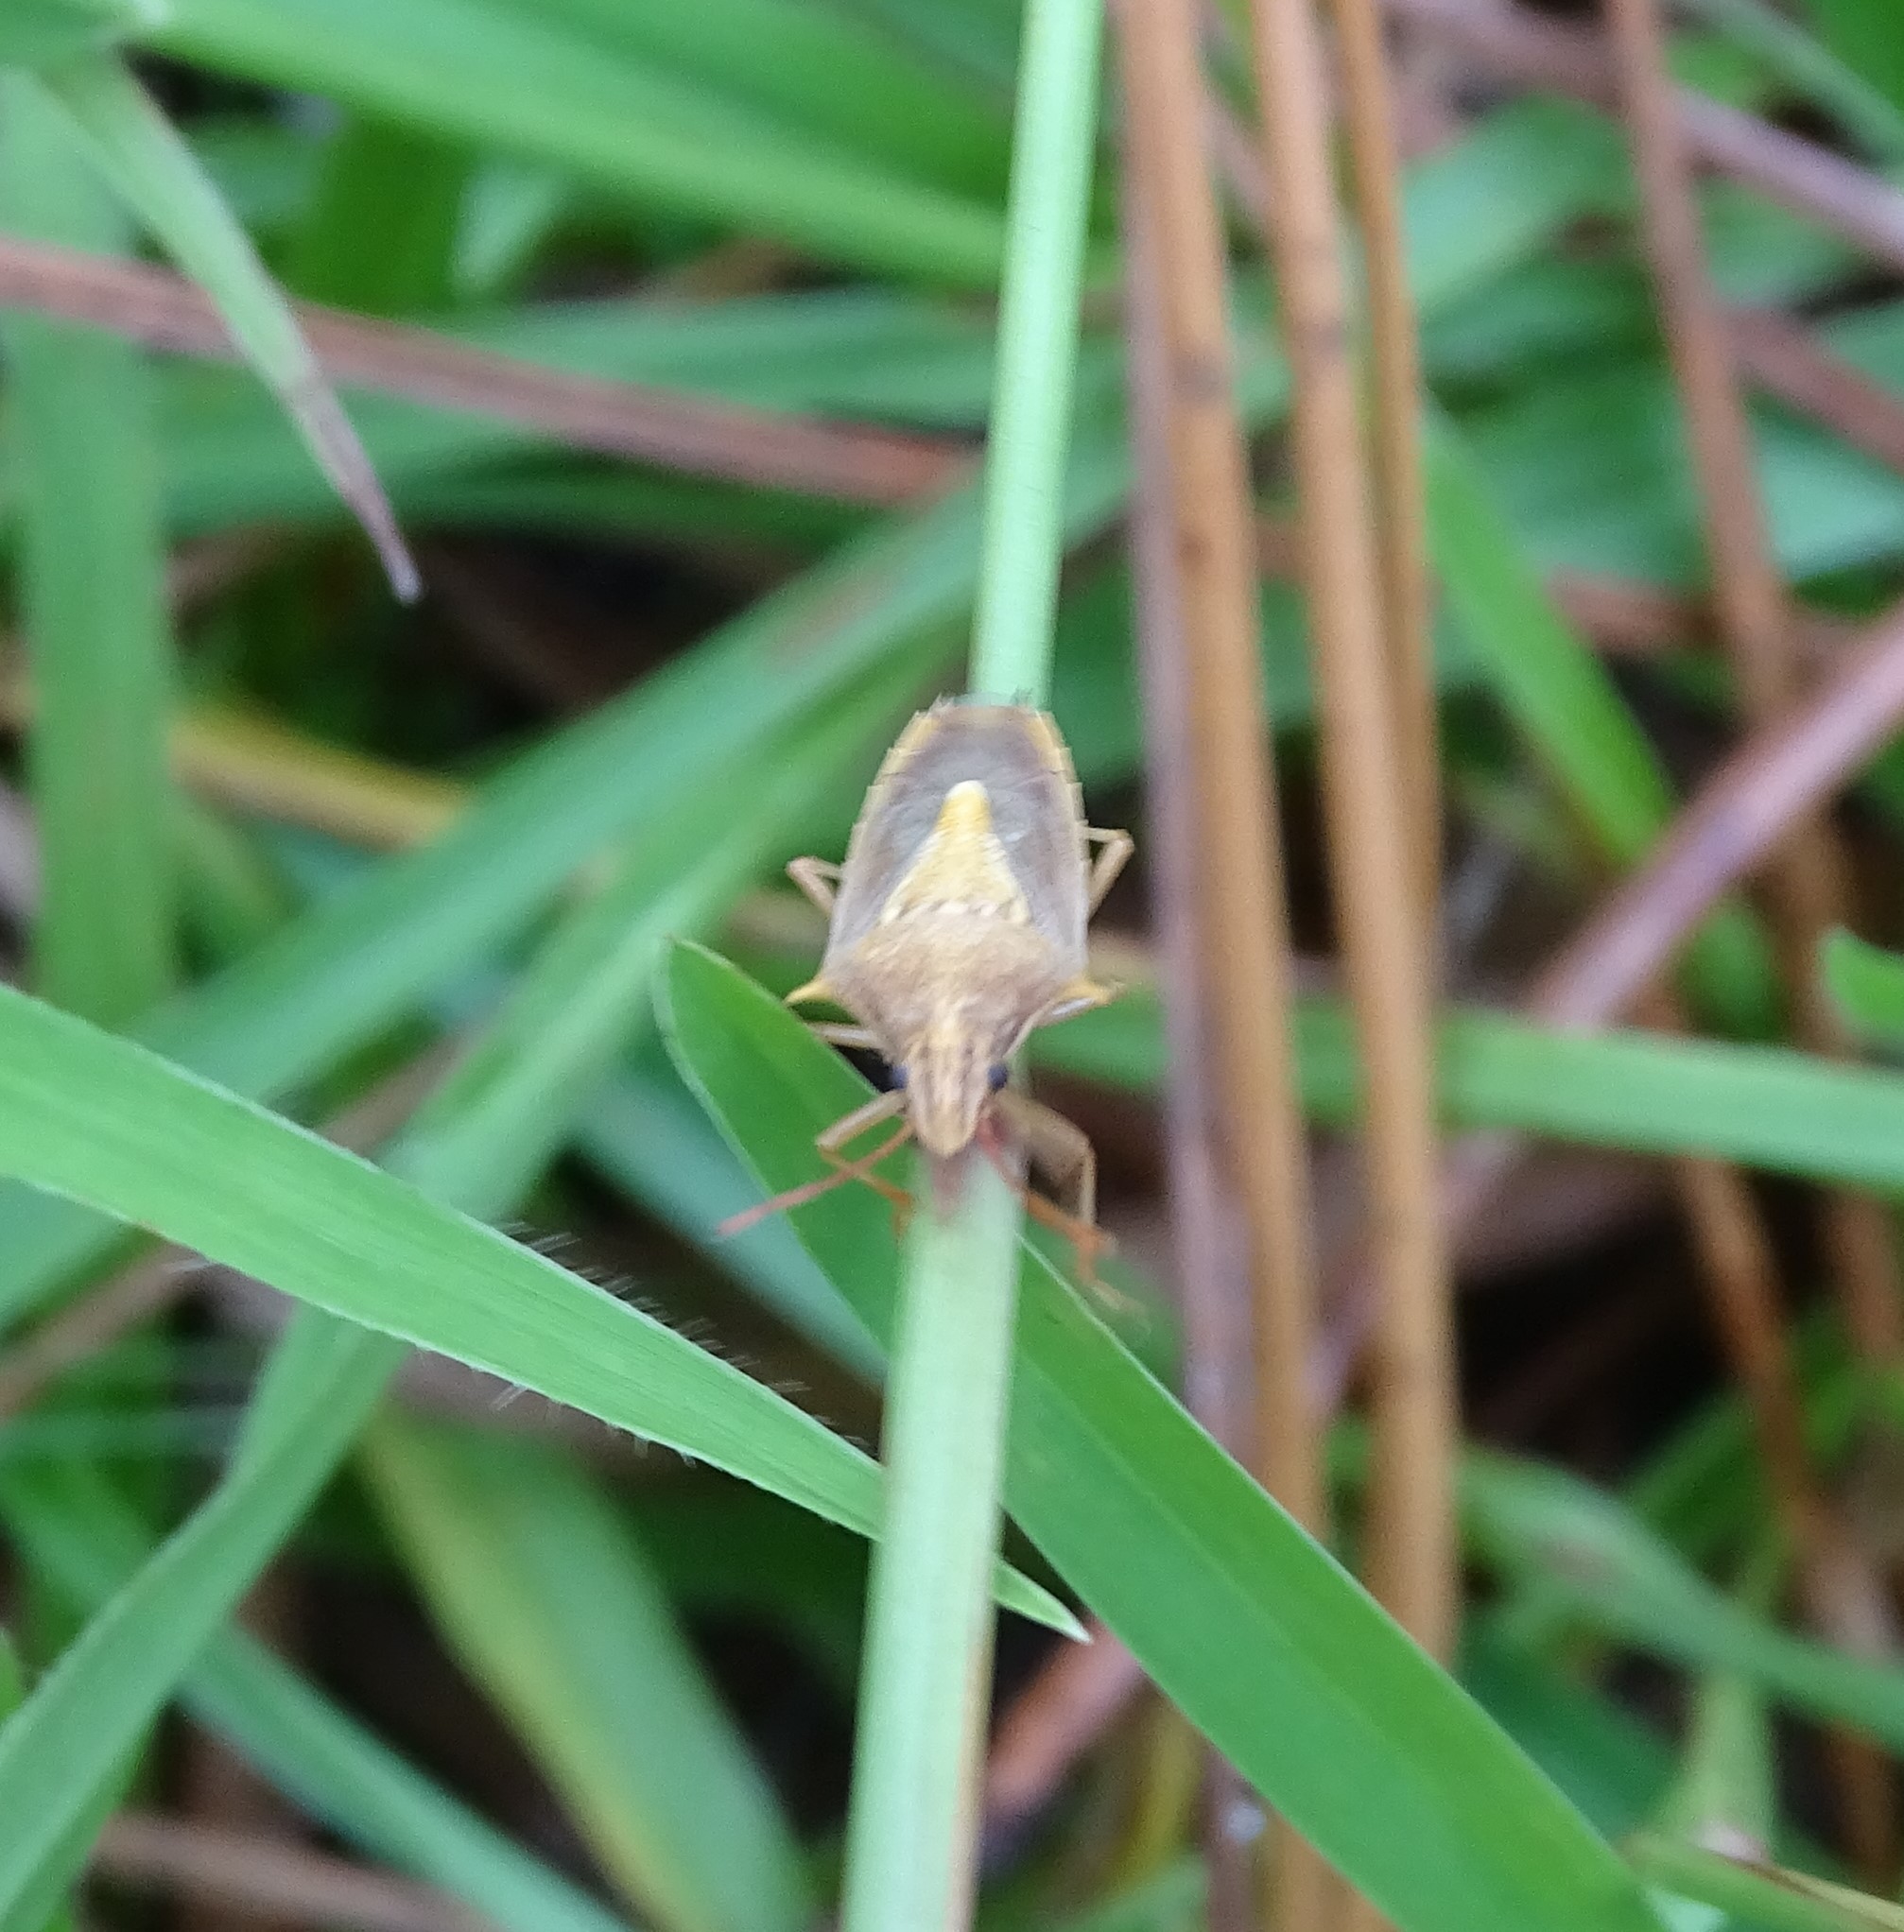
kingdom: Animalia
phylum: Arthropoda
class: Insecta
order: Hemiptera
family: Pentatomidae
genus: Oebalus
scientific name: Oebalus pugnax
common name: Rice stink bug
